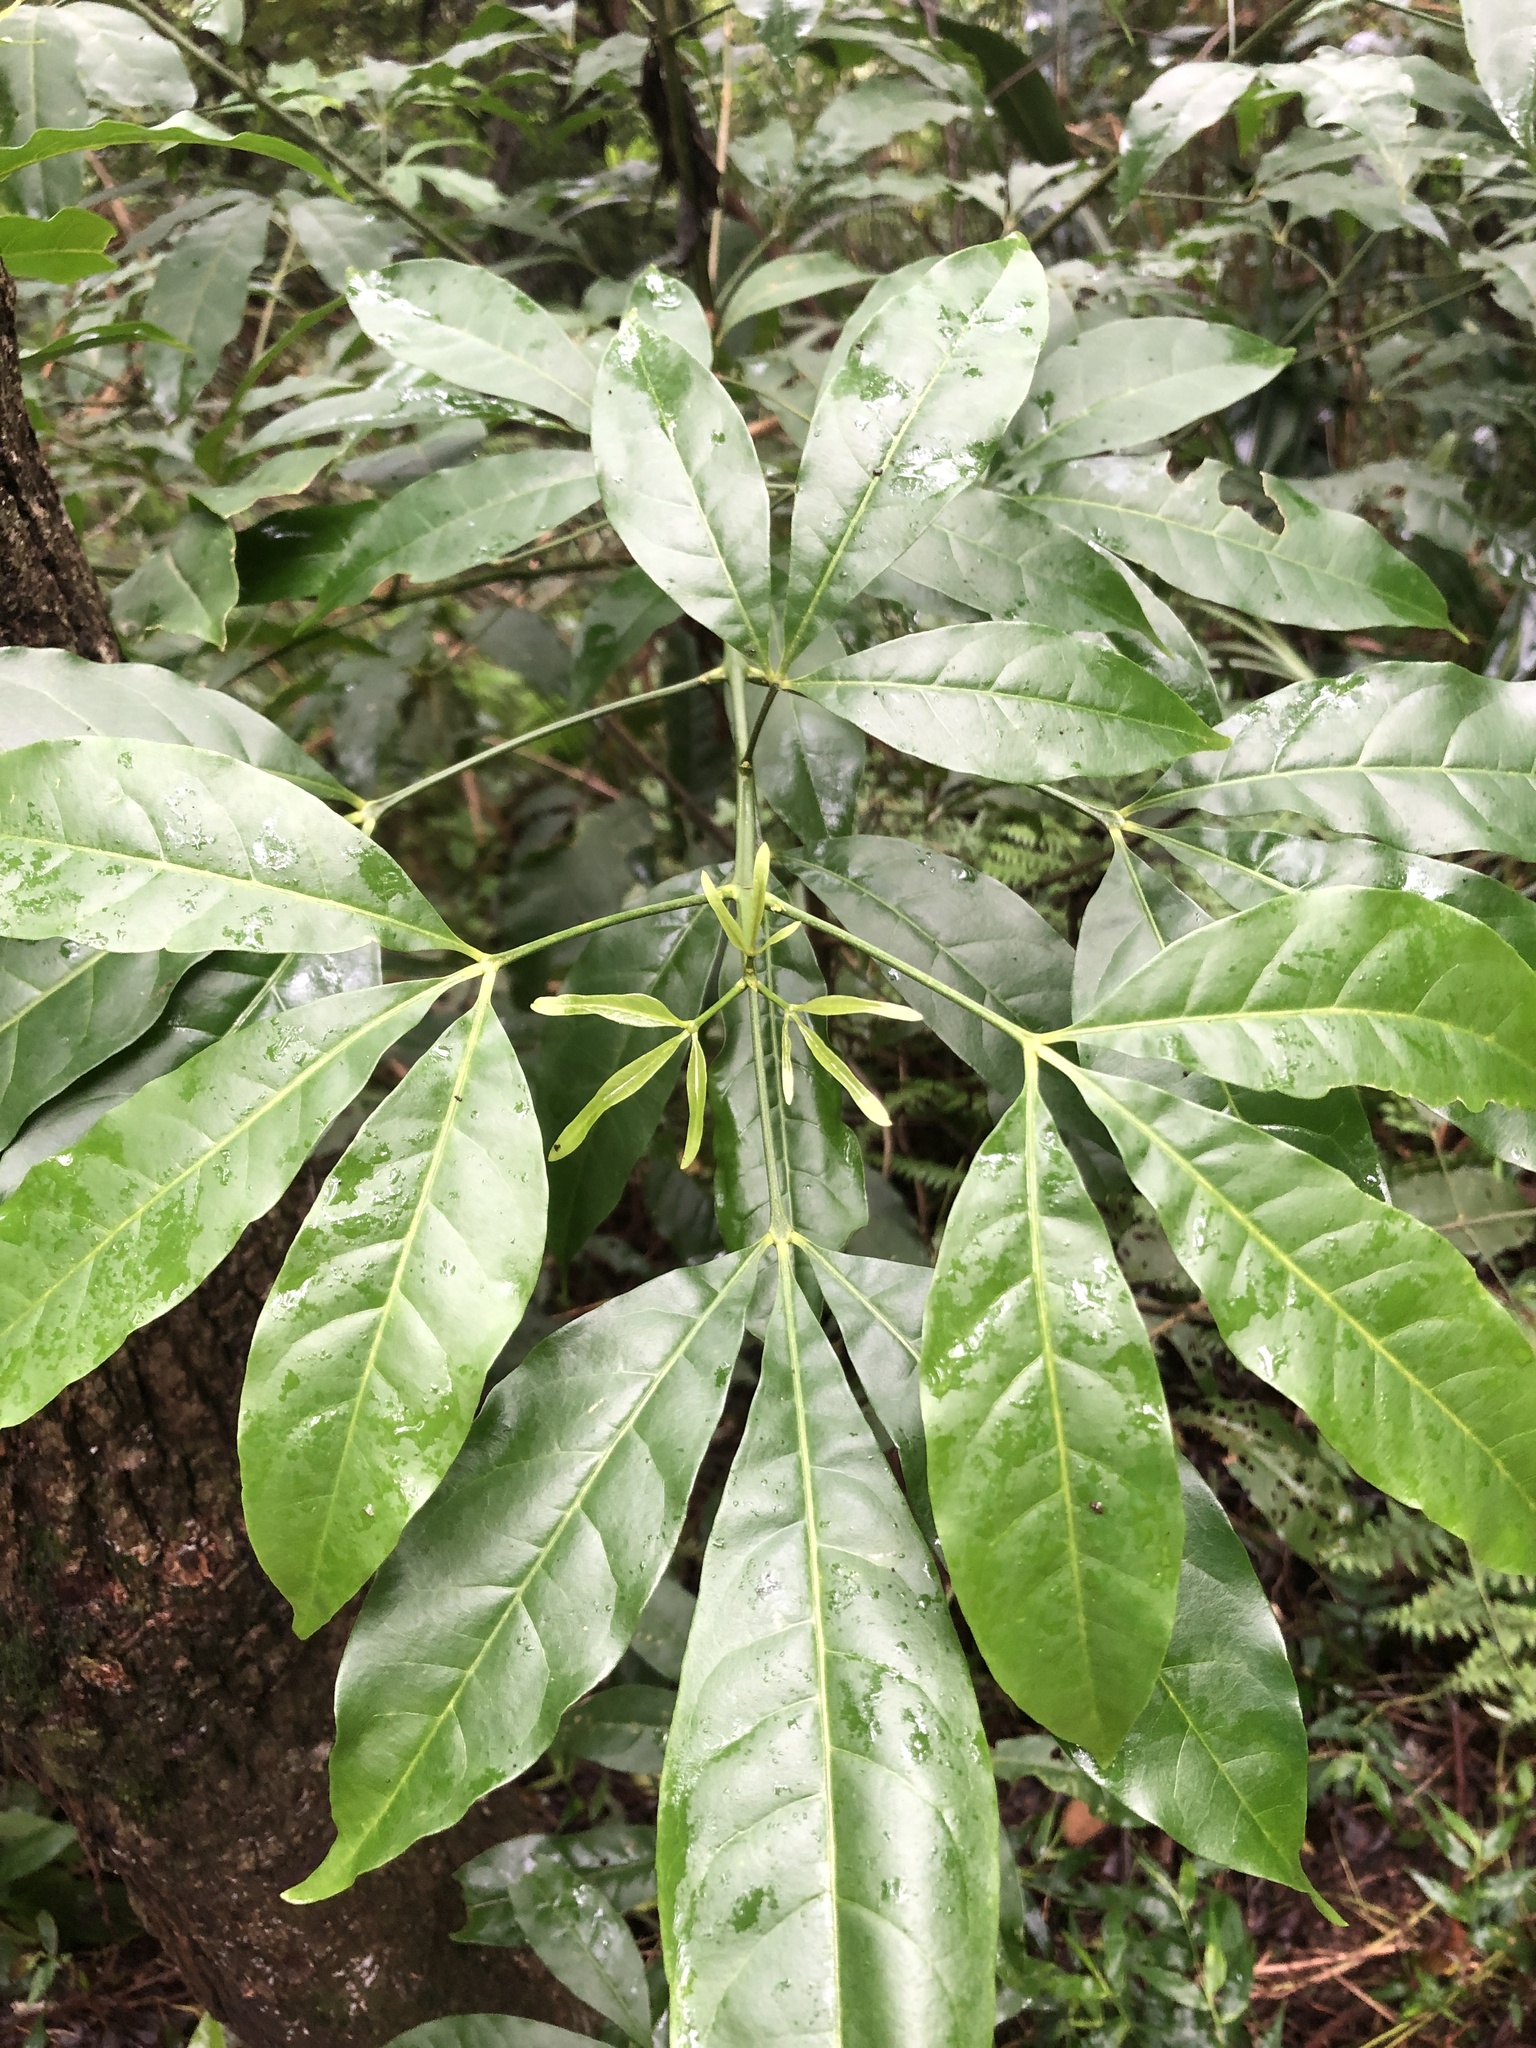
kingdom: Plantae
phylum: Tracheophyta
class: Magnoliopsida
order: Sapindales
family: Rutaceae
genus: Melicope
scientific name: Melicope pteleifolia
